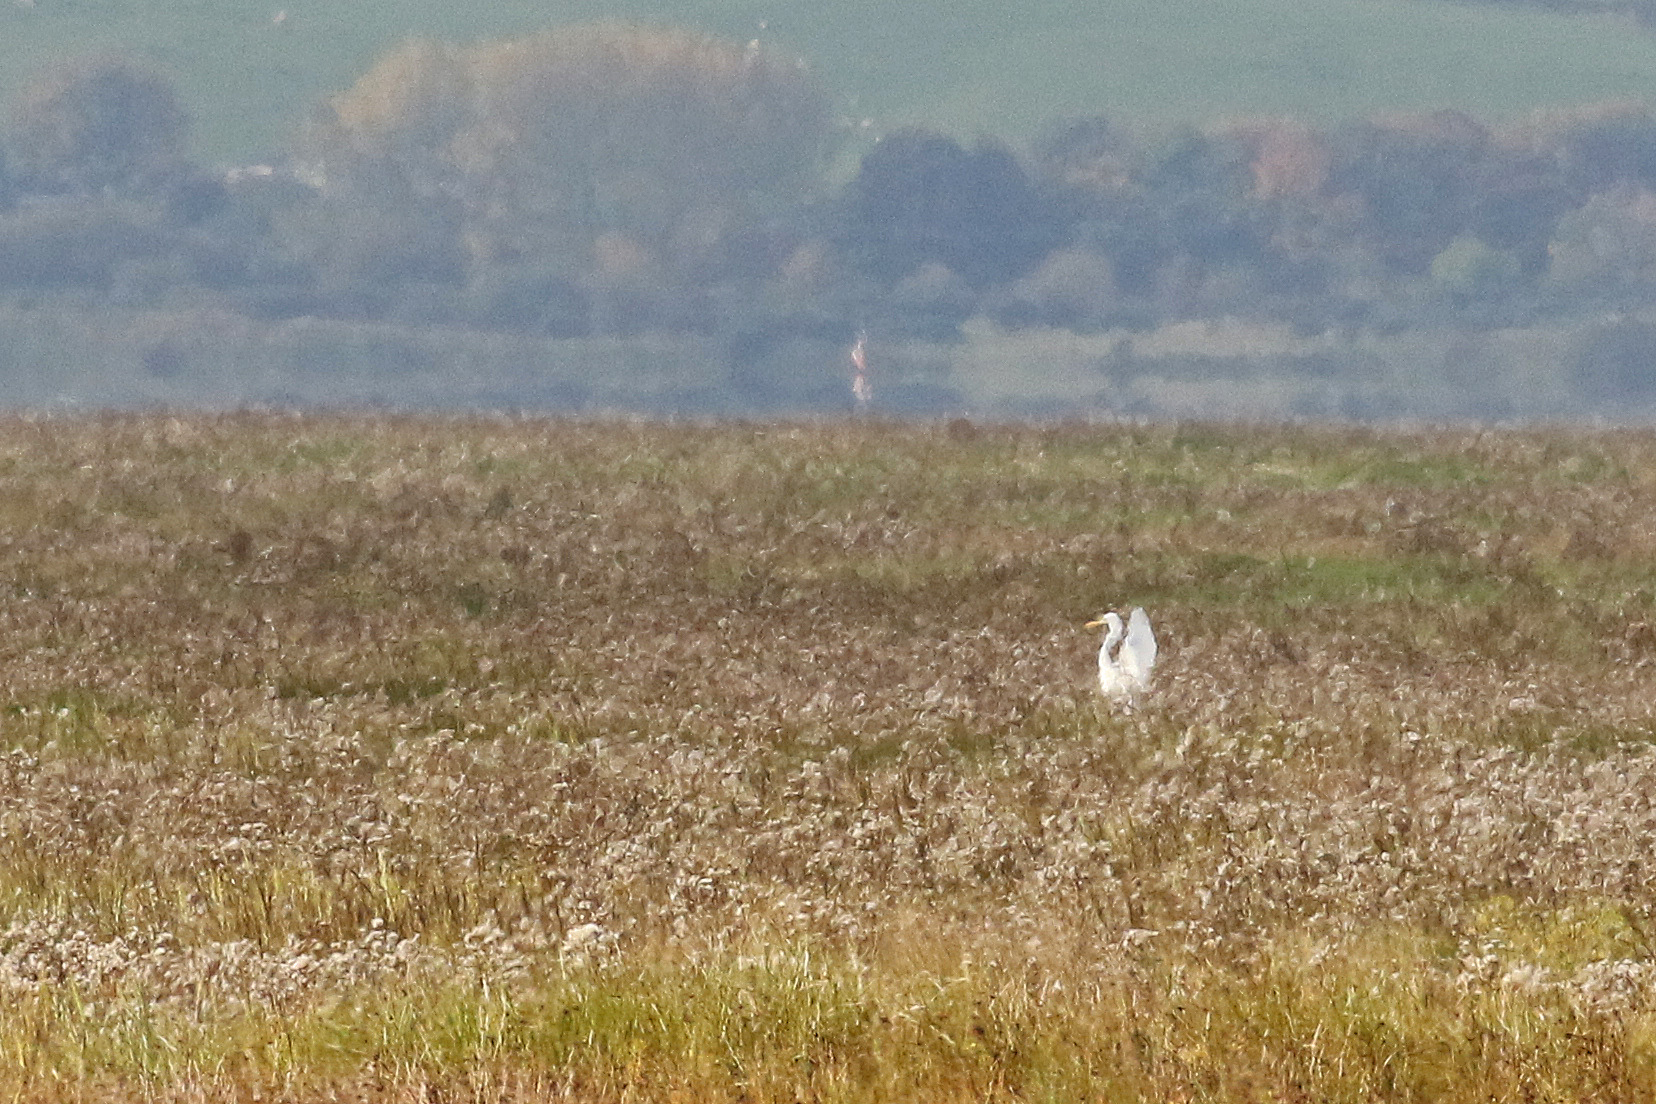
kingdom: Animalia
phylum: Chordata
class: Aves
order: Pelecaniformes
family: Ardeidae
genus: Ardea
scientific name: Ardea alba
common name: Great egret
